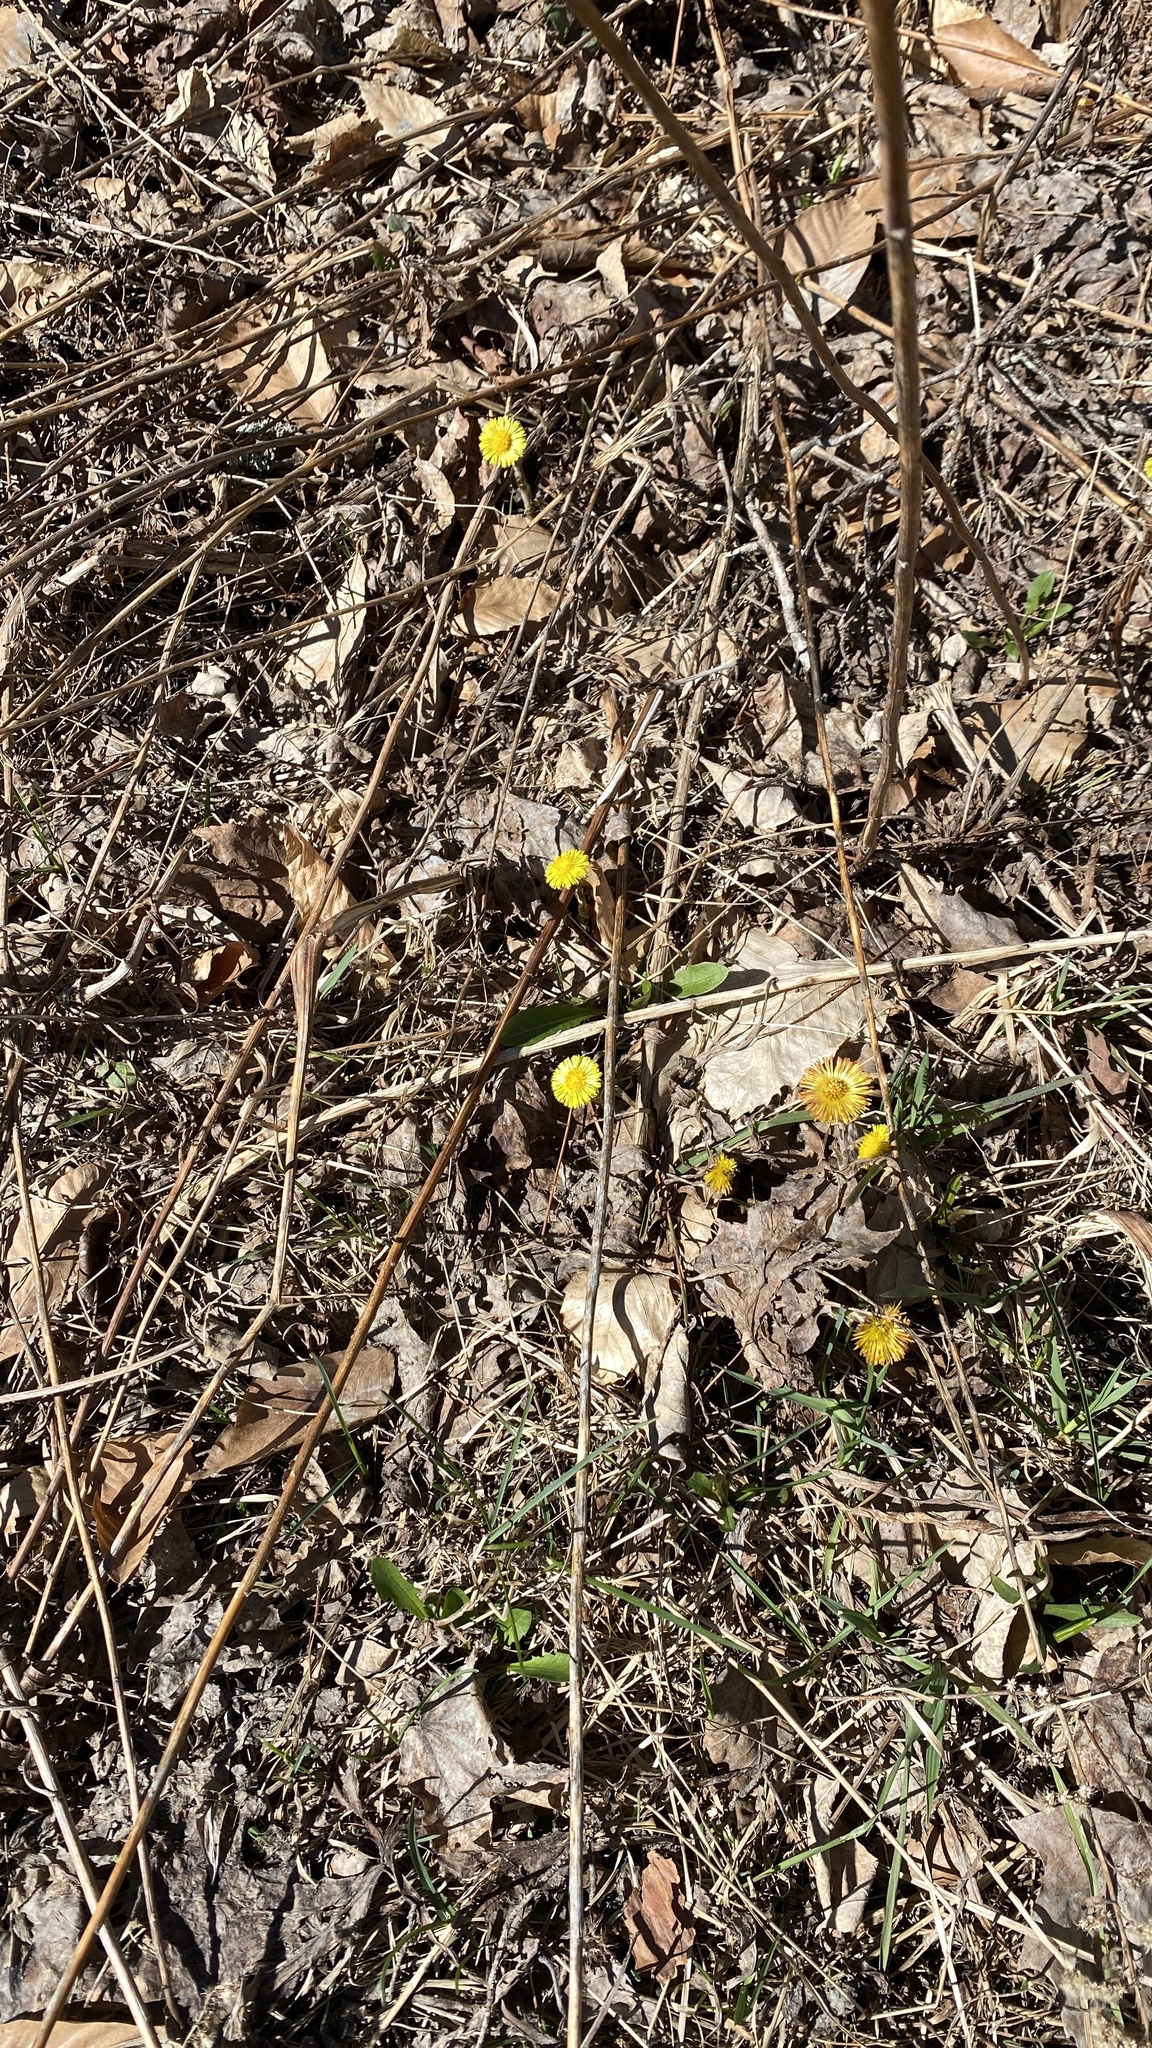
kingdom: Plantae
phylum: Tracheophyta
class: Magnoliopsida
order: Asterales
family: Asteraceae
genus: Tussilago
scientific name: Tussilago farfara
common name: Coltsfoot
